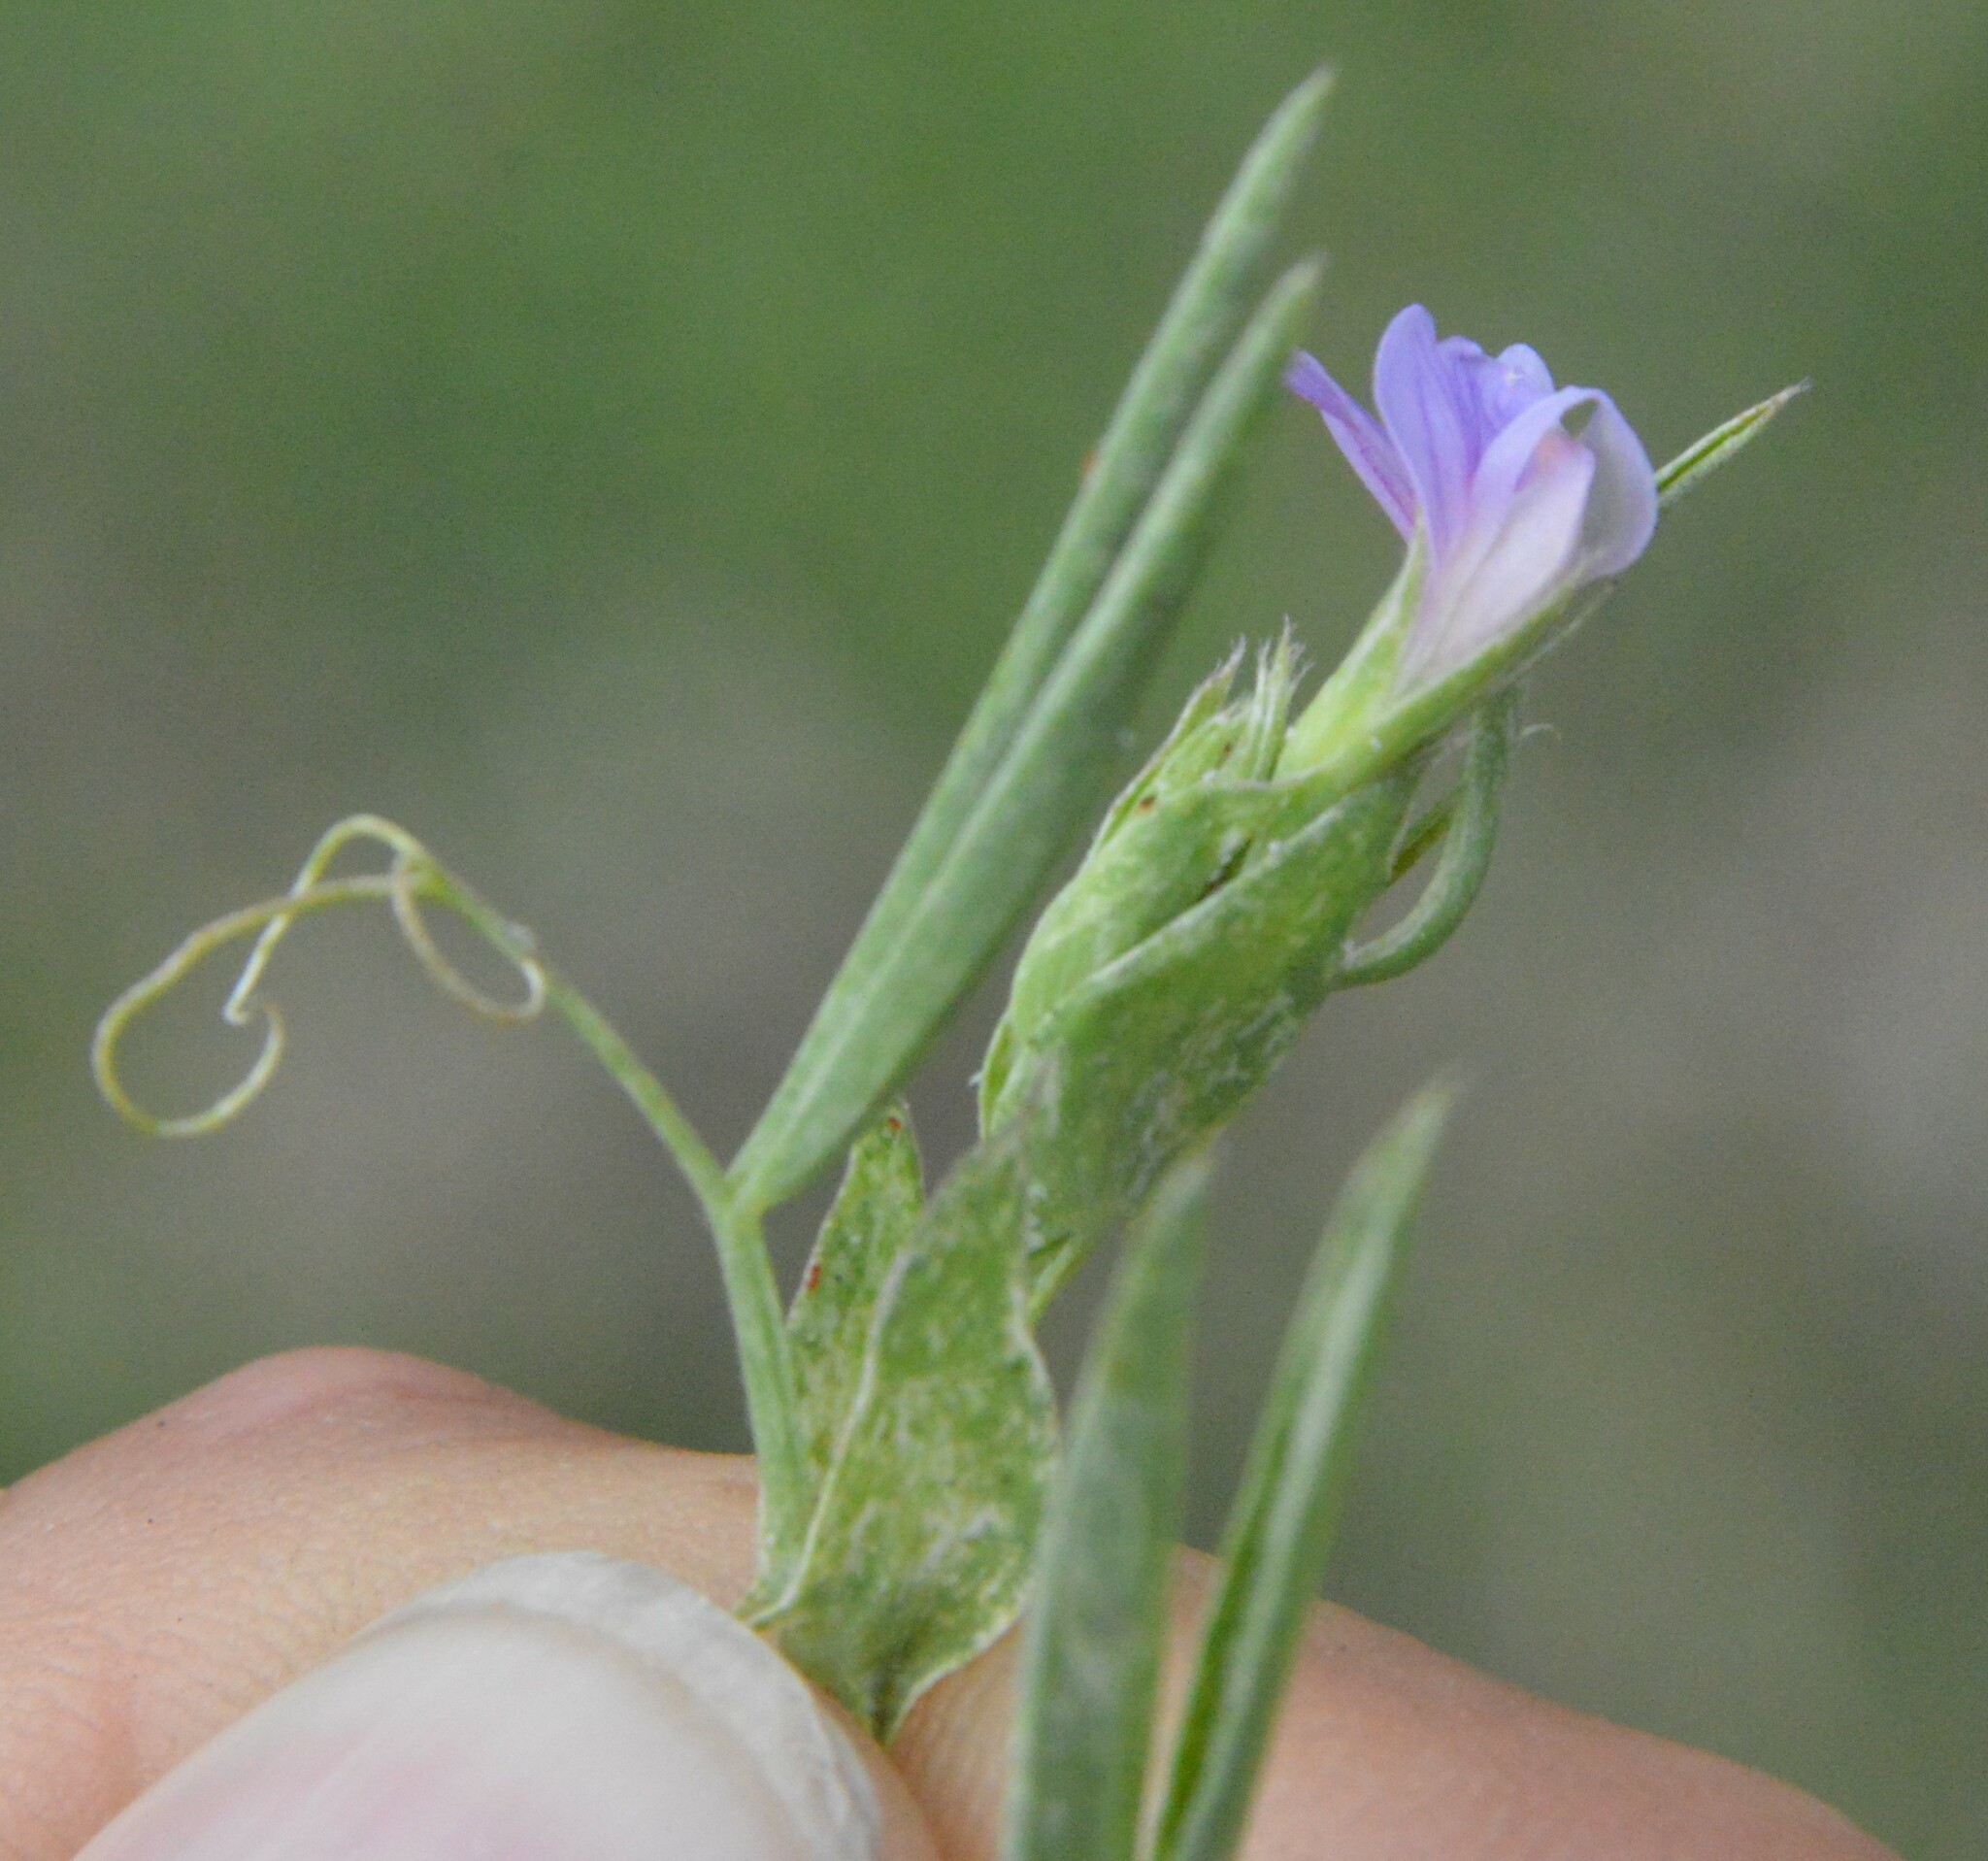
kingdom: Plantae
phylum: Tracheophyta
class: Magnoliopsida
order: Fabales
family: Fabaceae
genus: Lathyrus
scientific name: Lathyrus pusillus
